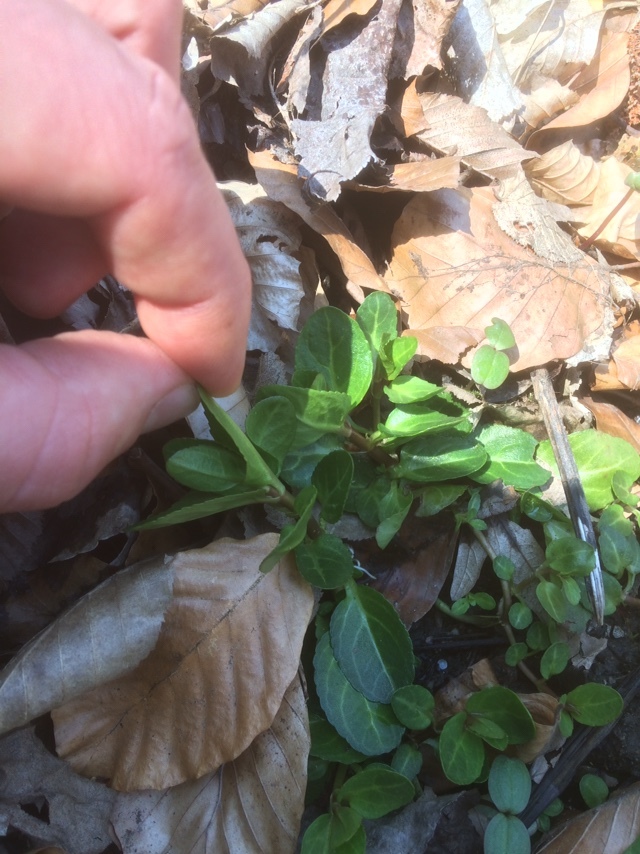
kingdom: Plantae
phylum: Tracheophyta
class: Magnoliopsida
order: Gentianales
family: Apocynaceae
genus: Vinca
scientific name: Vinca minor
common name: Lesser periwinkle
